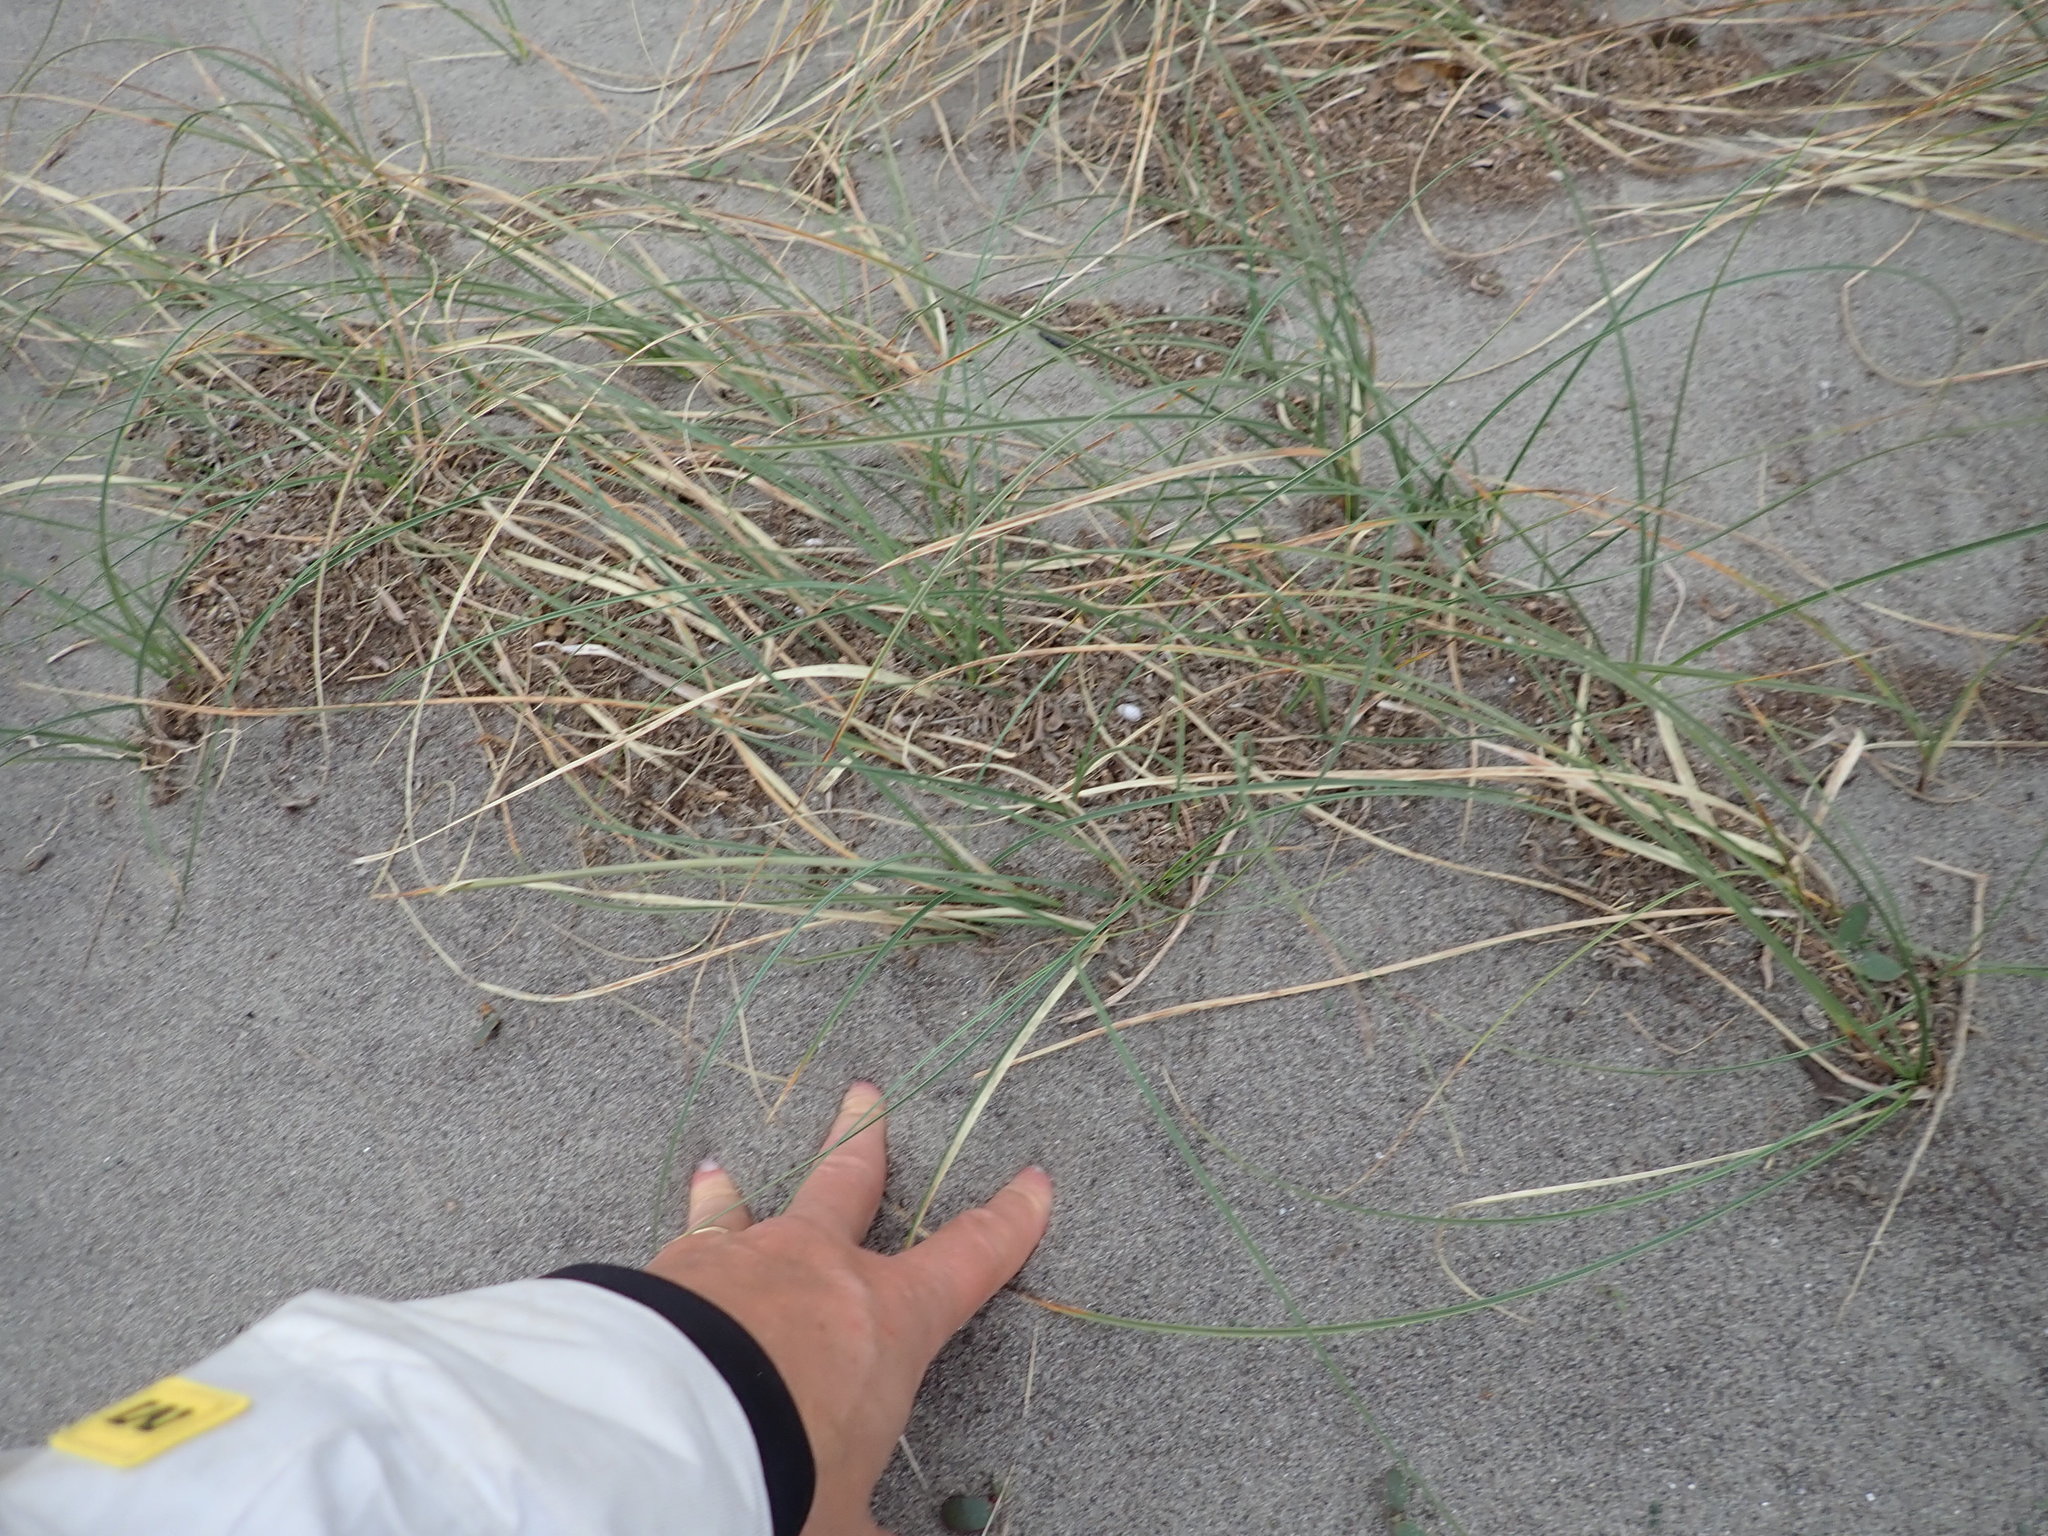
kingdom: Plantae
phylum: Tracheophyta
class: Liliopsida
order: Poales
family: Cyperaceae
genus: Carex
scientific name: Carex pumila
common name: Dwarf sedge
